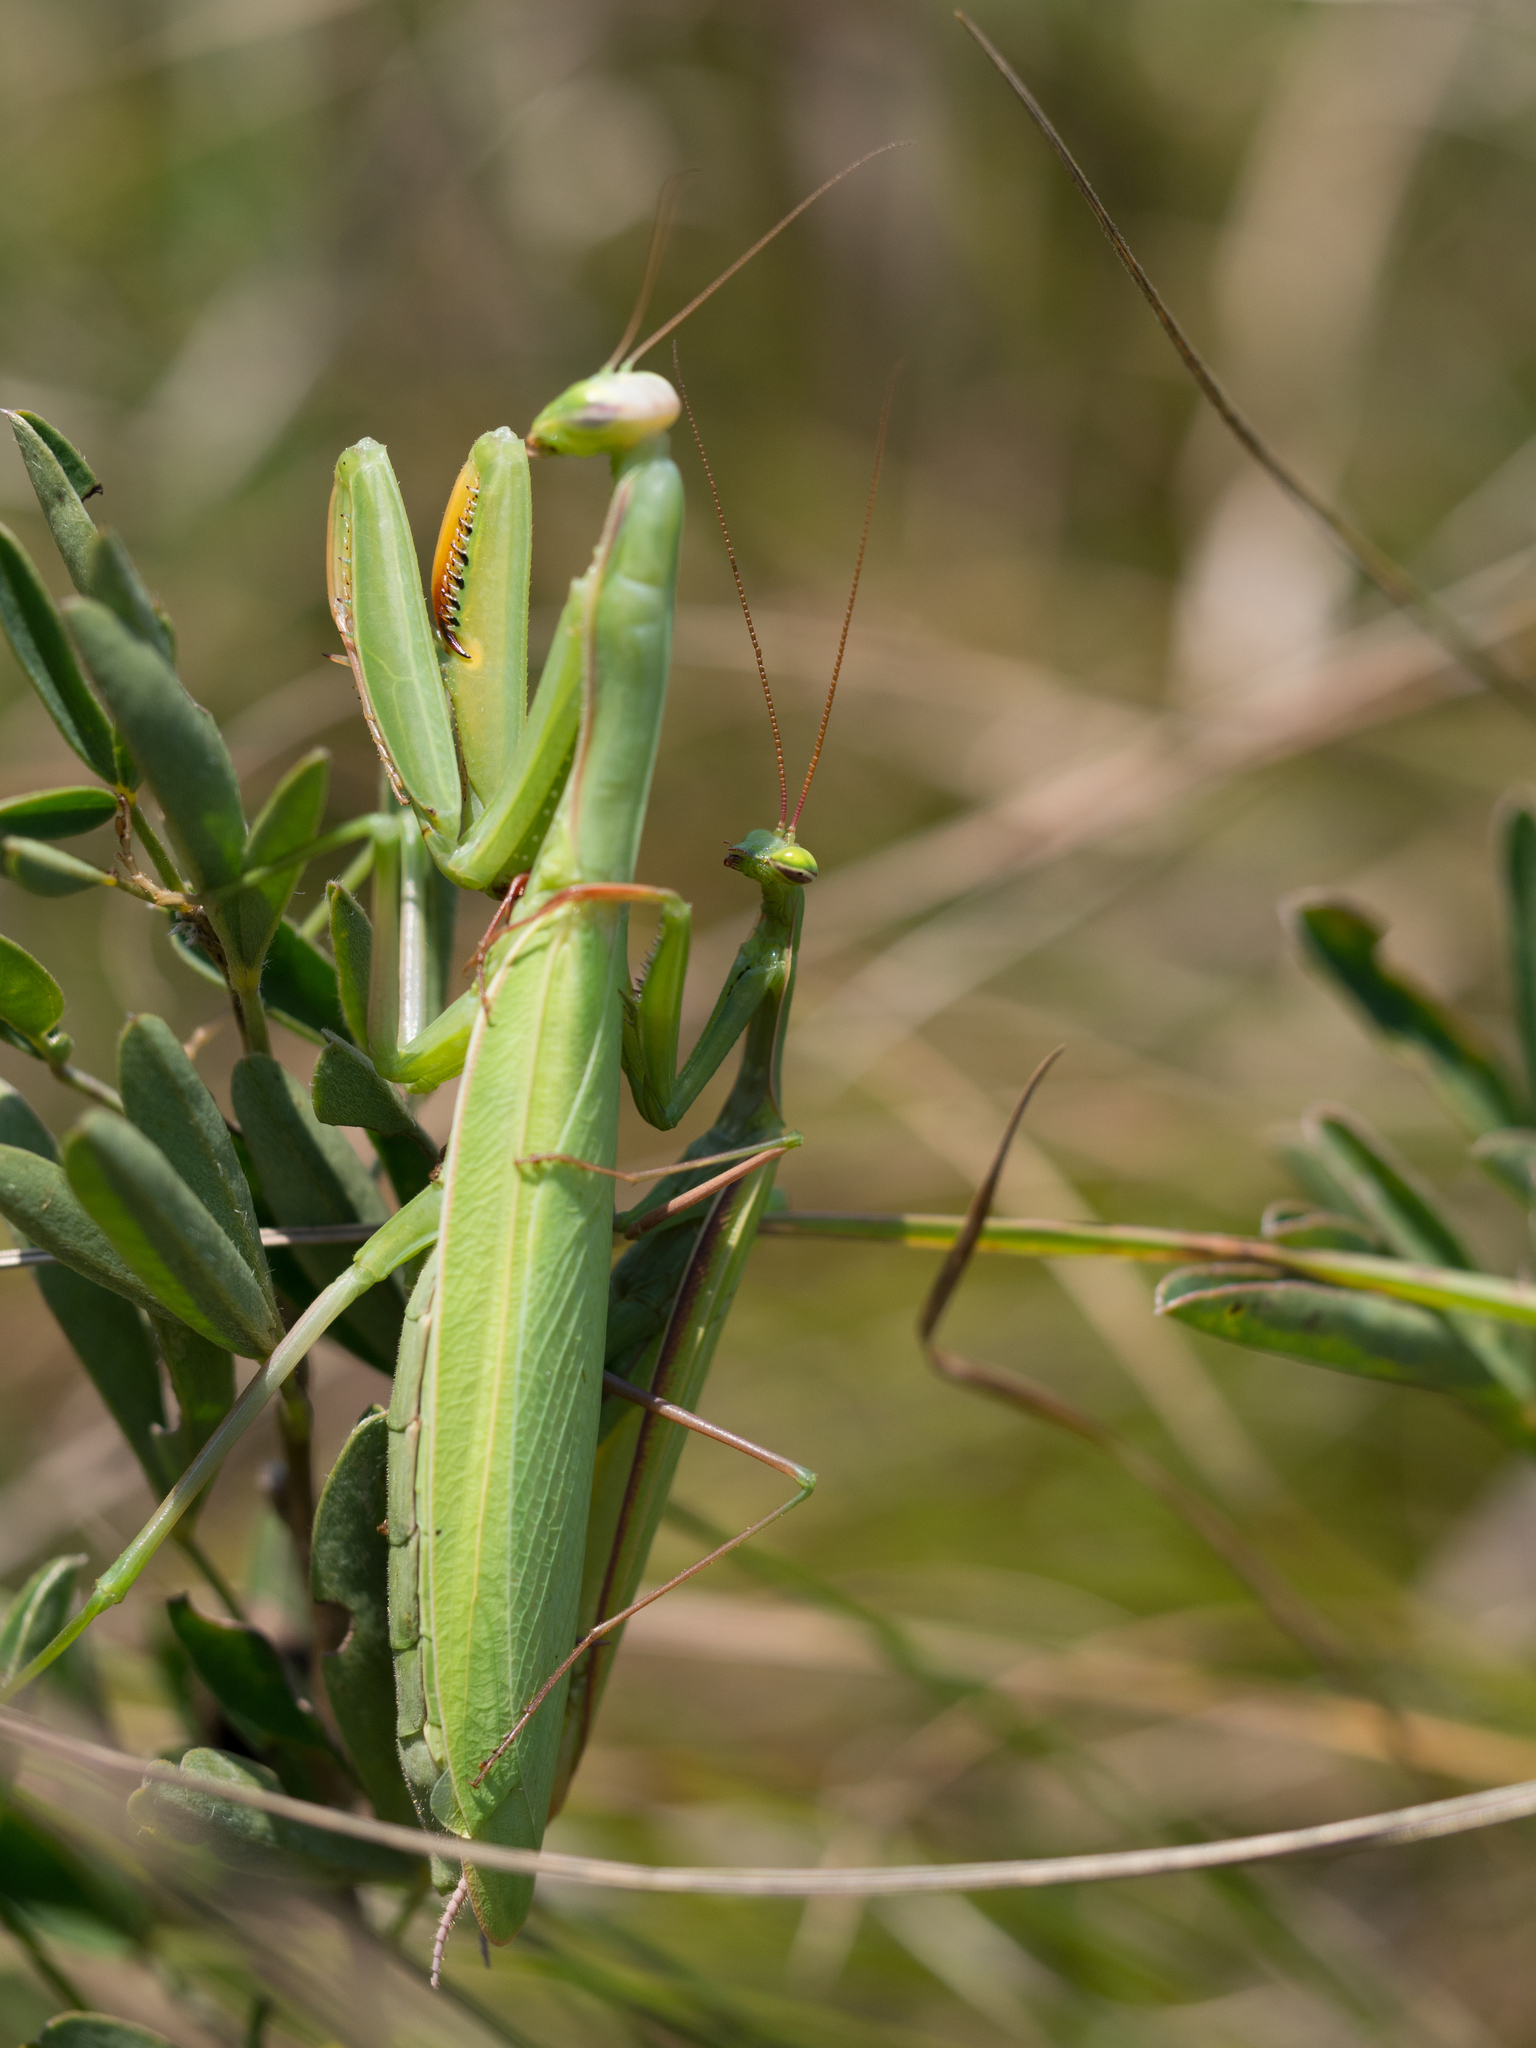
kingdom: Animalia
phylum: Arthropoda
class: Insecta
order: Mantodea
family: Mantidae
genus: Mantis
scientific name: Mantis religiosa
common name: Praying mantis
